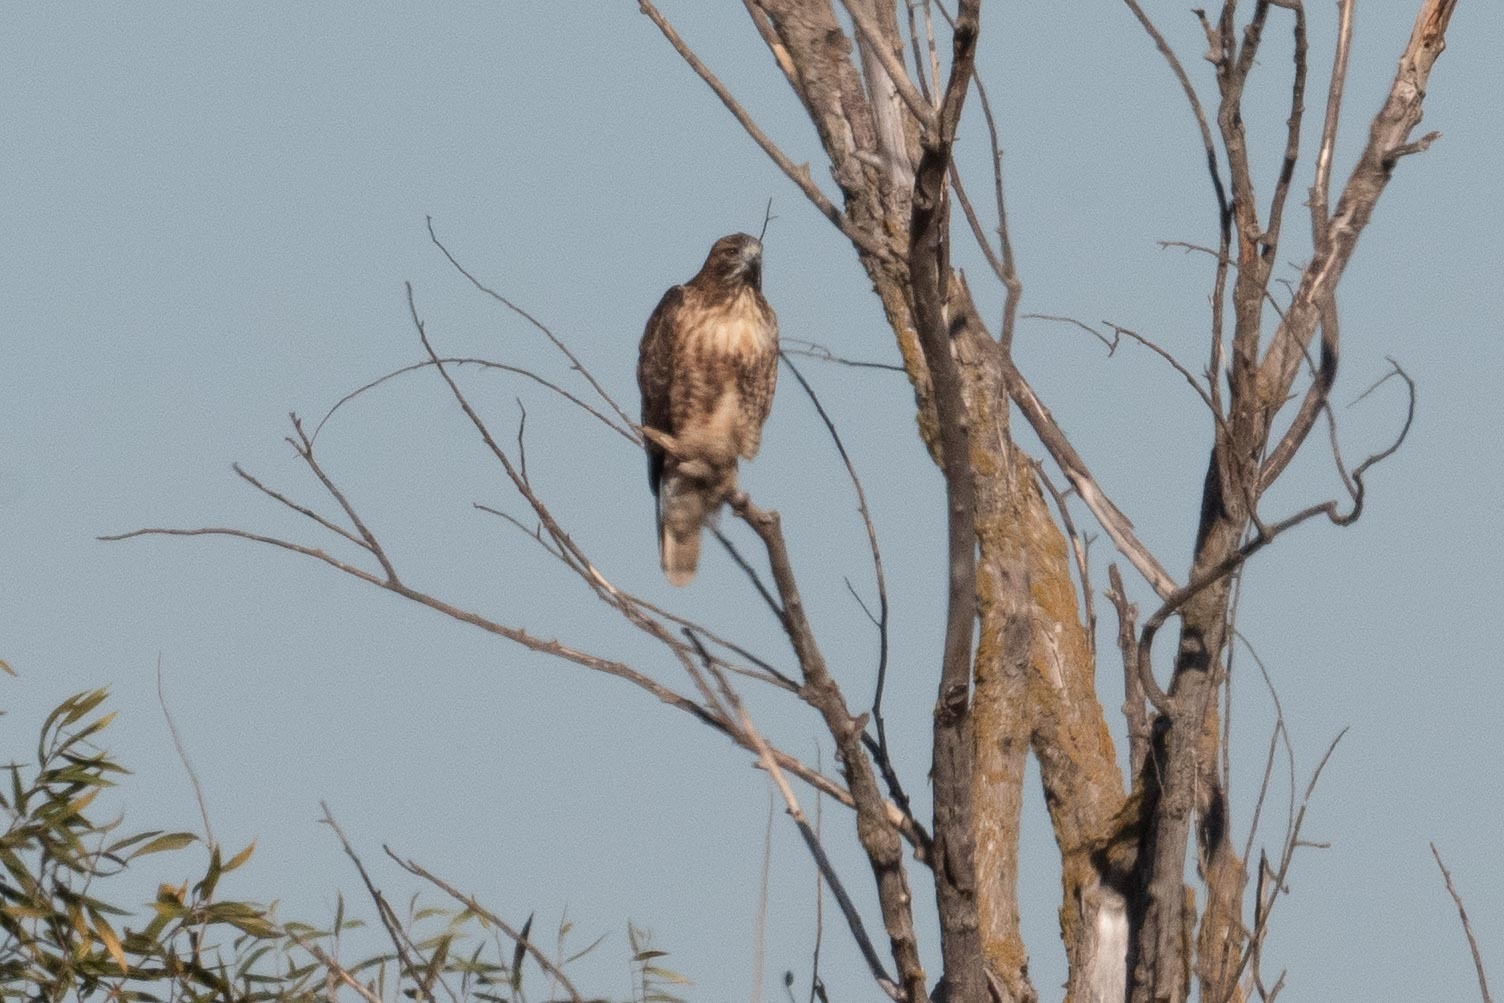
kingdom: Animalia
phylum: Chordata
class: Aves
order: Accipitriformes
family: Accipitridae
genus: Buteo
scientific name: Buteo jamaicensis
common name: Red-tailed hawk
